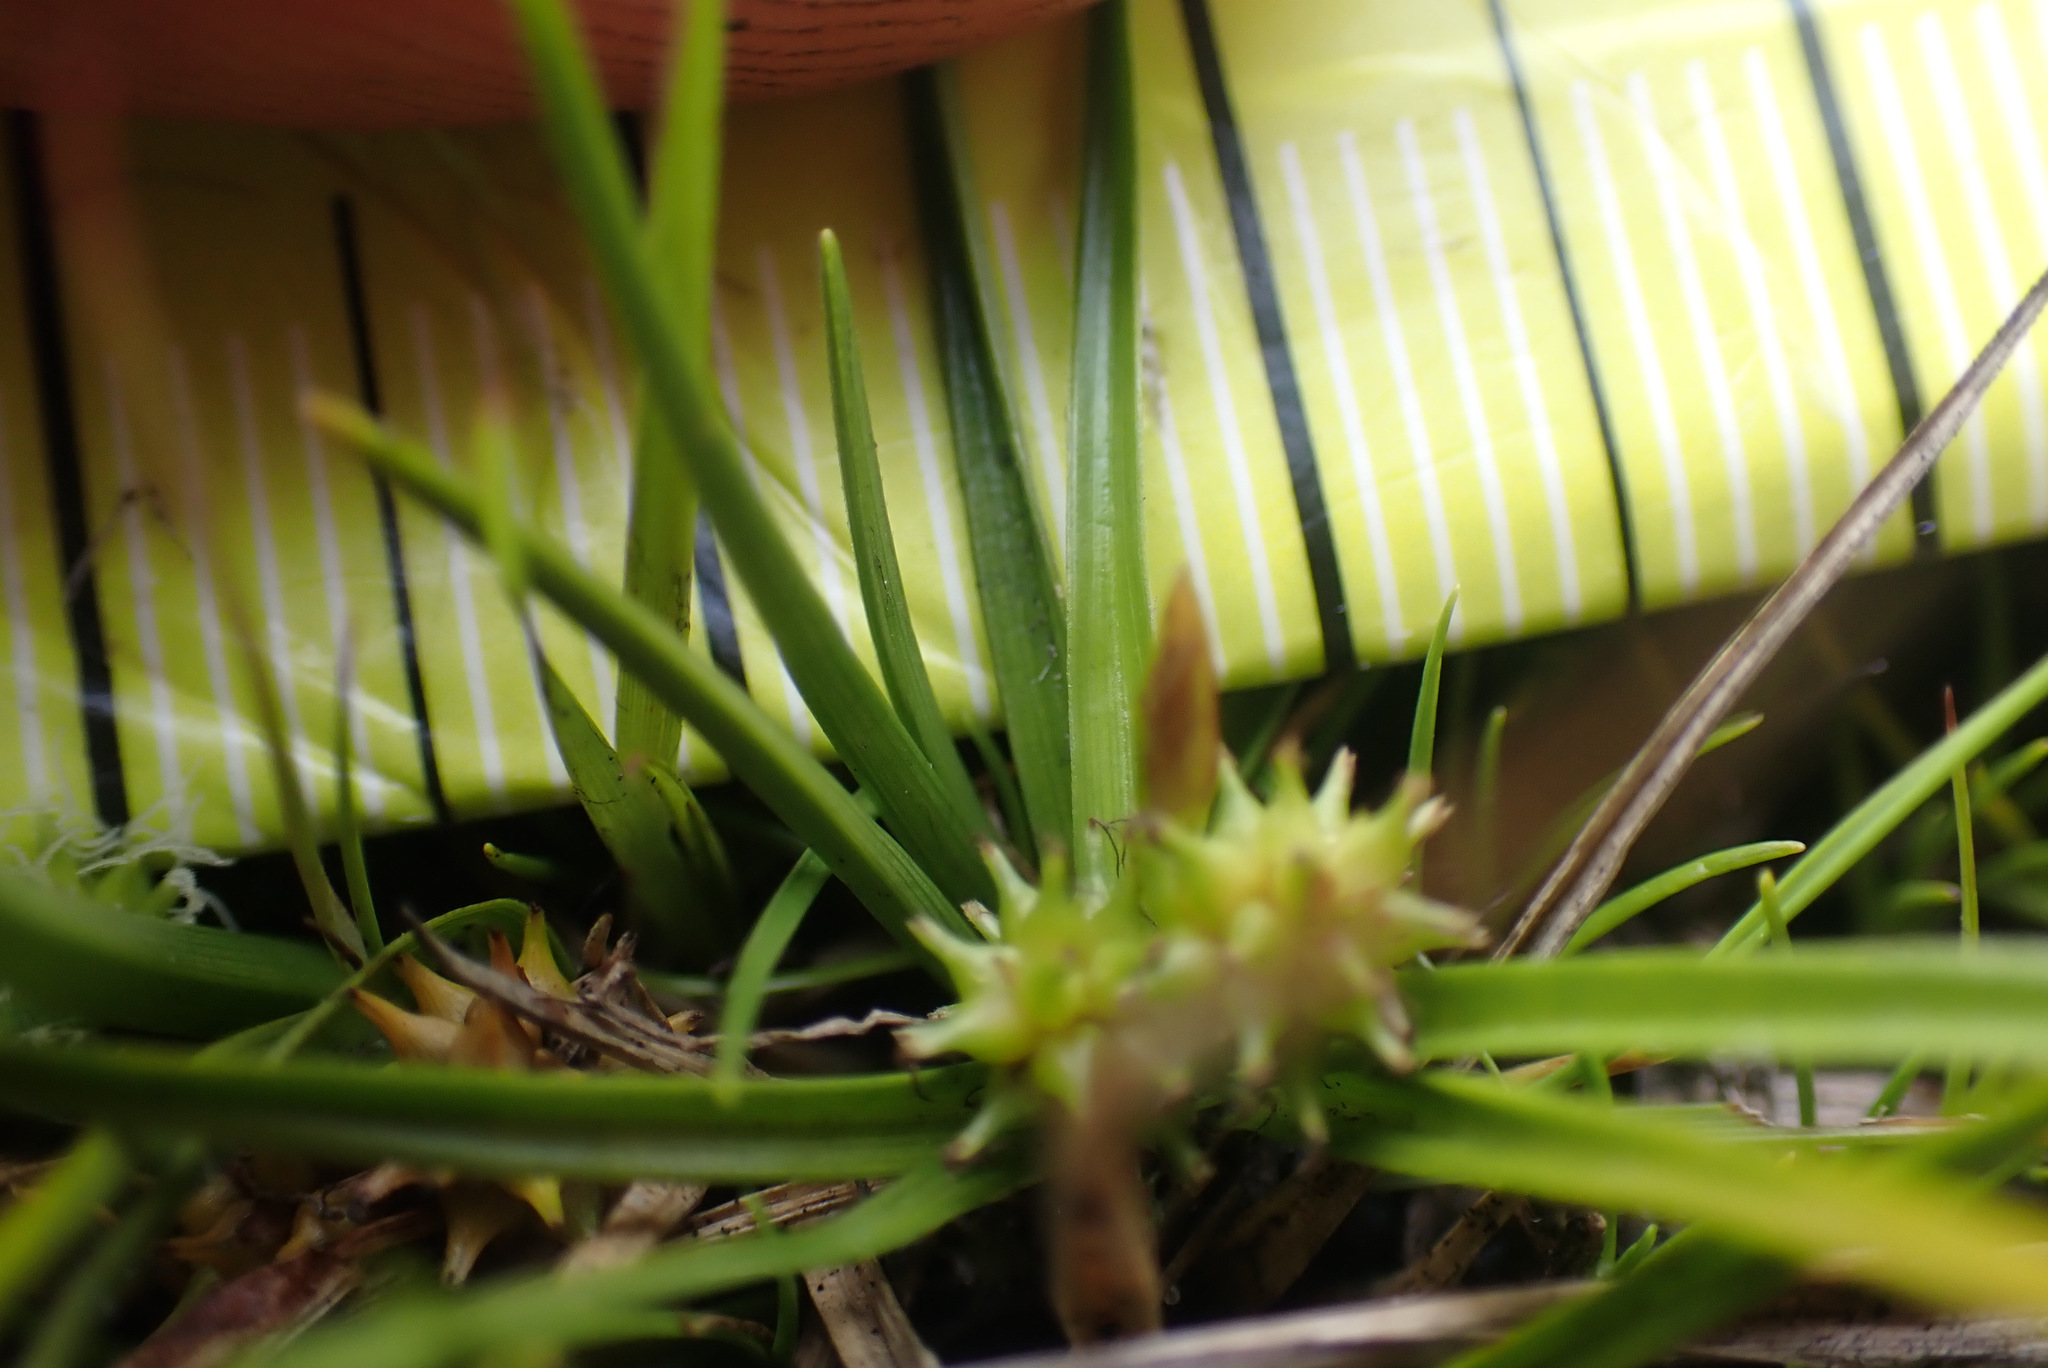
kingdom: Plantae
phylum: Tracheophyta
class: Liliopsida
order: Poales
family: Cyperaceae
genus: Carex
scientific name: Carex
